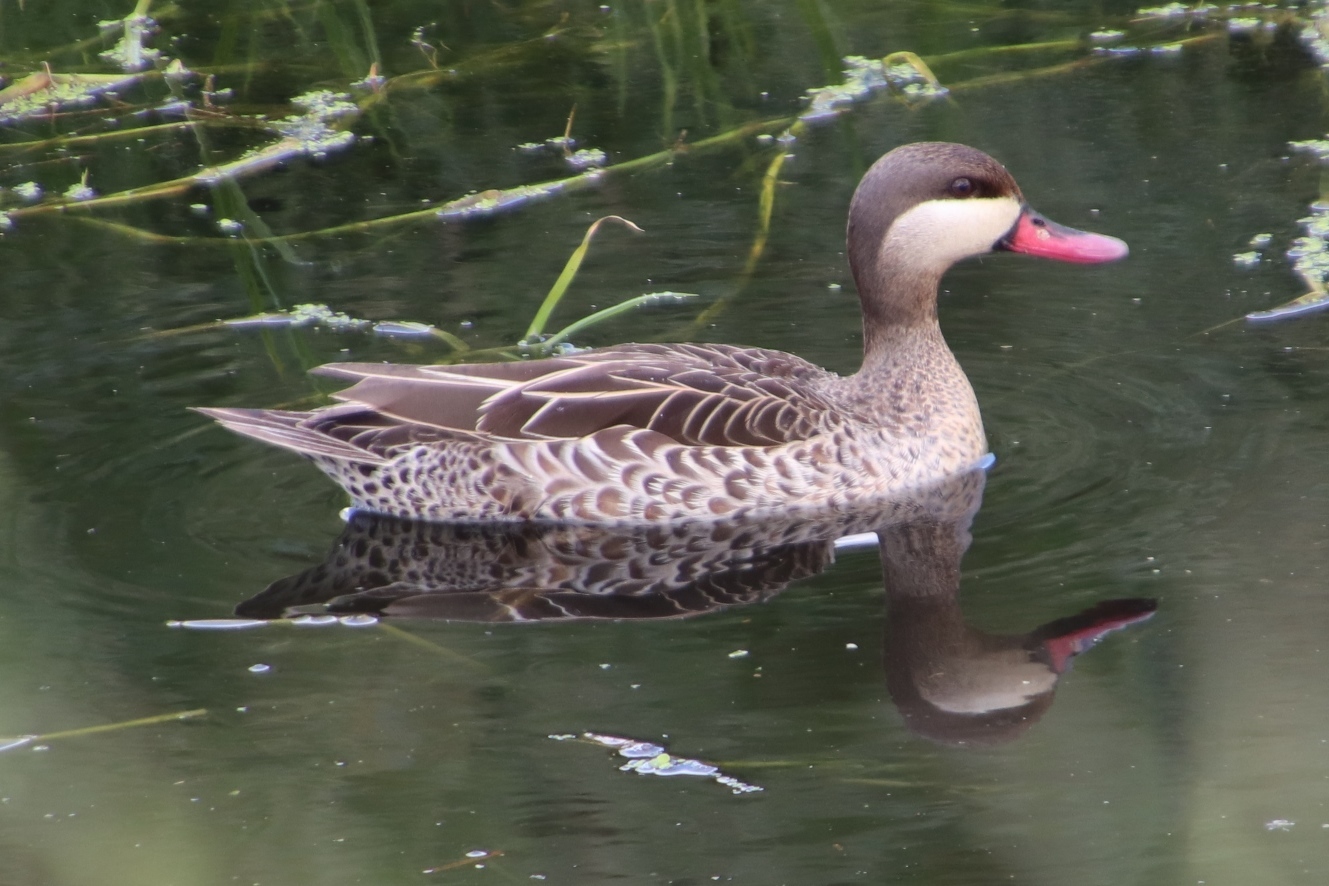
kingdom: Animalia
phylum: Chordata
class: Aves
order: Anseriformes
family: Anatidae
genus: Anas
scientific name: Anas erythrorhyncha
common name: Red-billed teal
